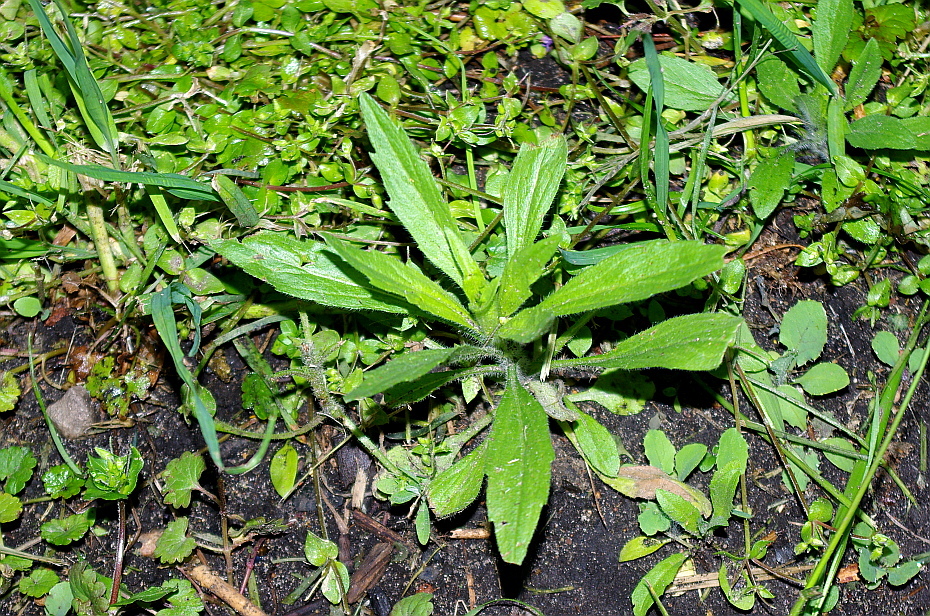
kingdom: Plantae
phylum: Tracheophyta
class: Magnoliopsida
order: Asterales
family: Asteraceae
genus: Erigeron
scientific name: Erigeron canadensis
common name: Canadian fleabane
